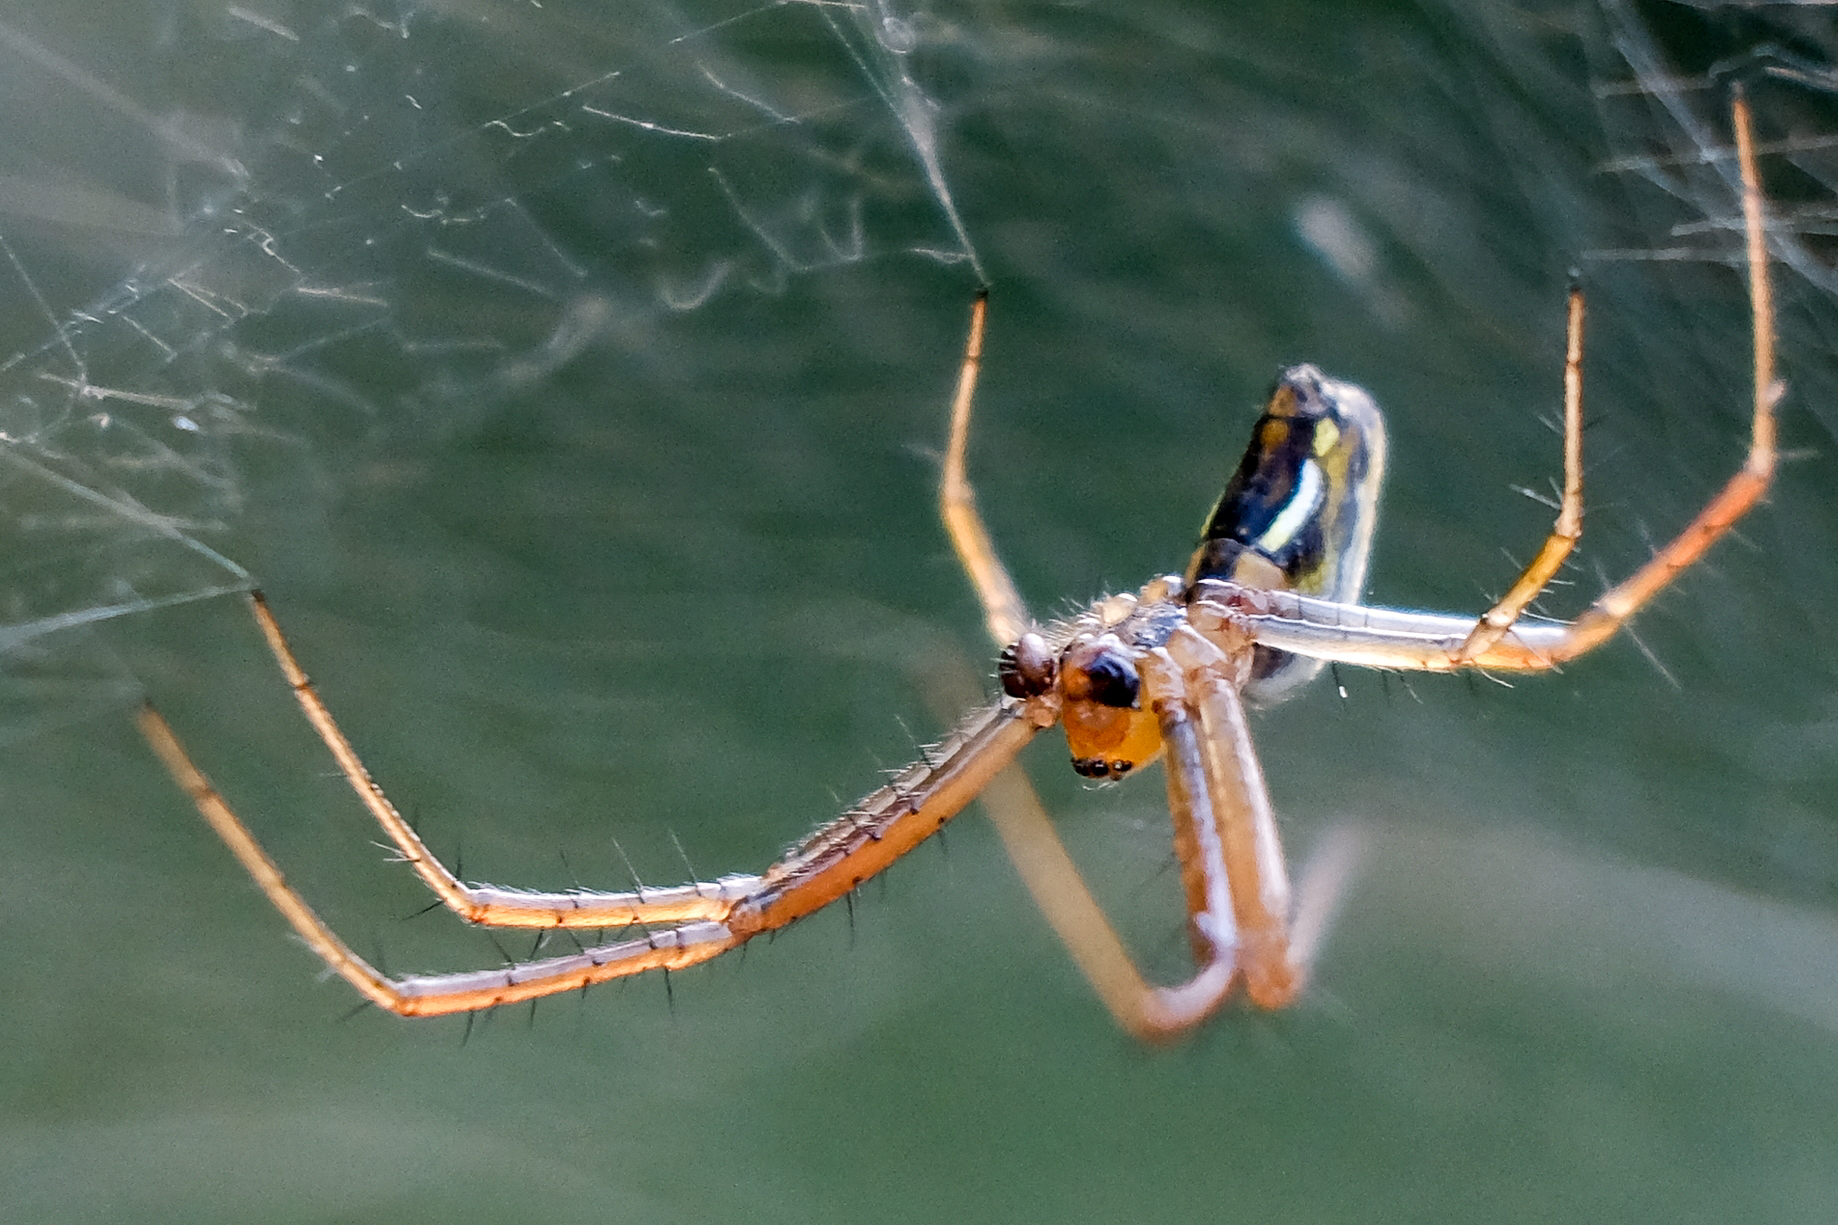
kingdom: Animalia
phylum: Arthropoda
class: Arachnida
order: Araneae
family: Araneidae
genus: Mecynogea
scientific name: Mecynogea lemniscata
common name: Orb weavers
